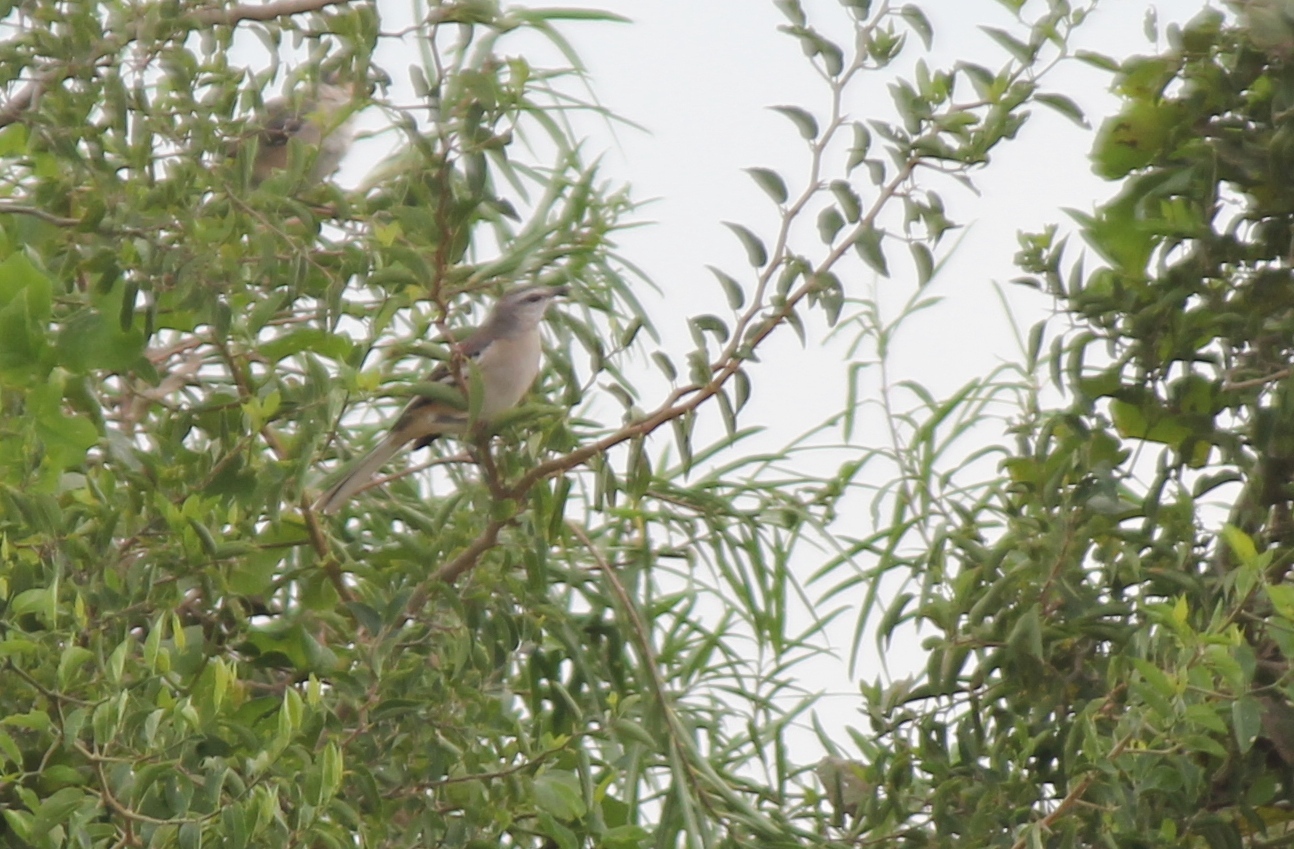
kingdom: Animalia
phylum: Chordata
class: Aves
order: Passeriformes
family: Mimidae
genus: Mimus
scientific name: Mimus triurus
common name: White-banded mockingbird
